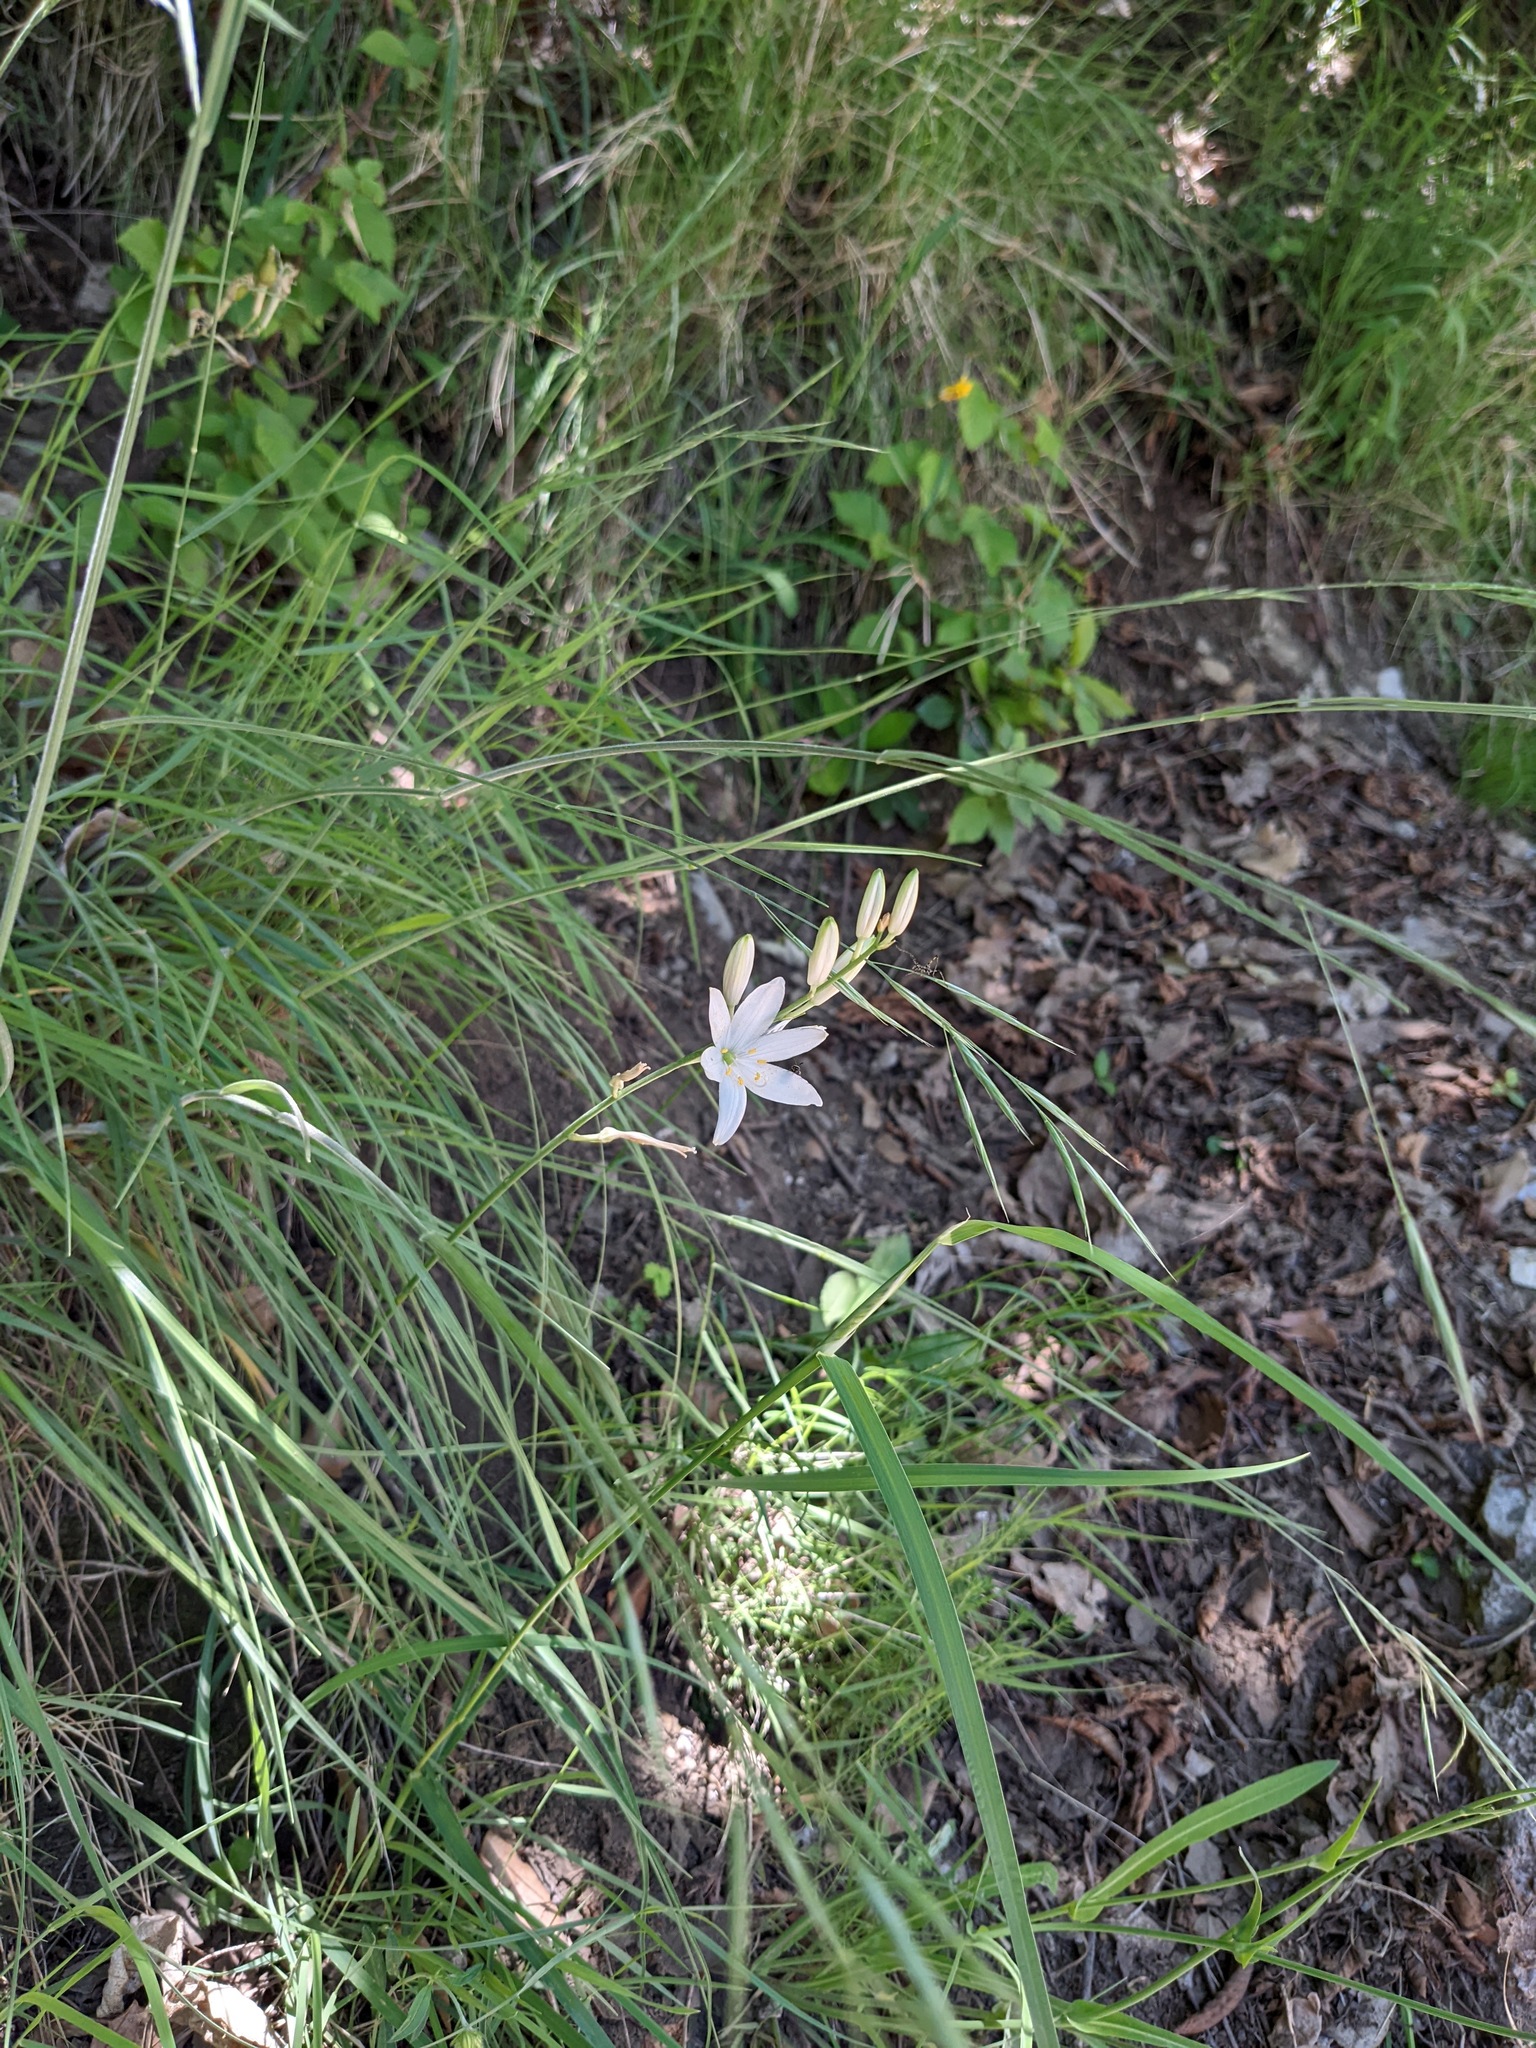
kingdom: Plantae
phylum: Tracheophyta
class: Liliopsida
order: Asparagales
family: Asparagaceae
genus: Anthericum
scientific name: Anthericum liliago
